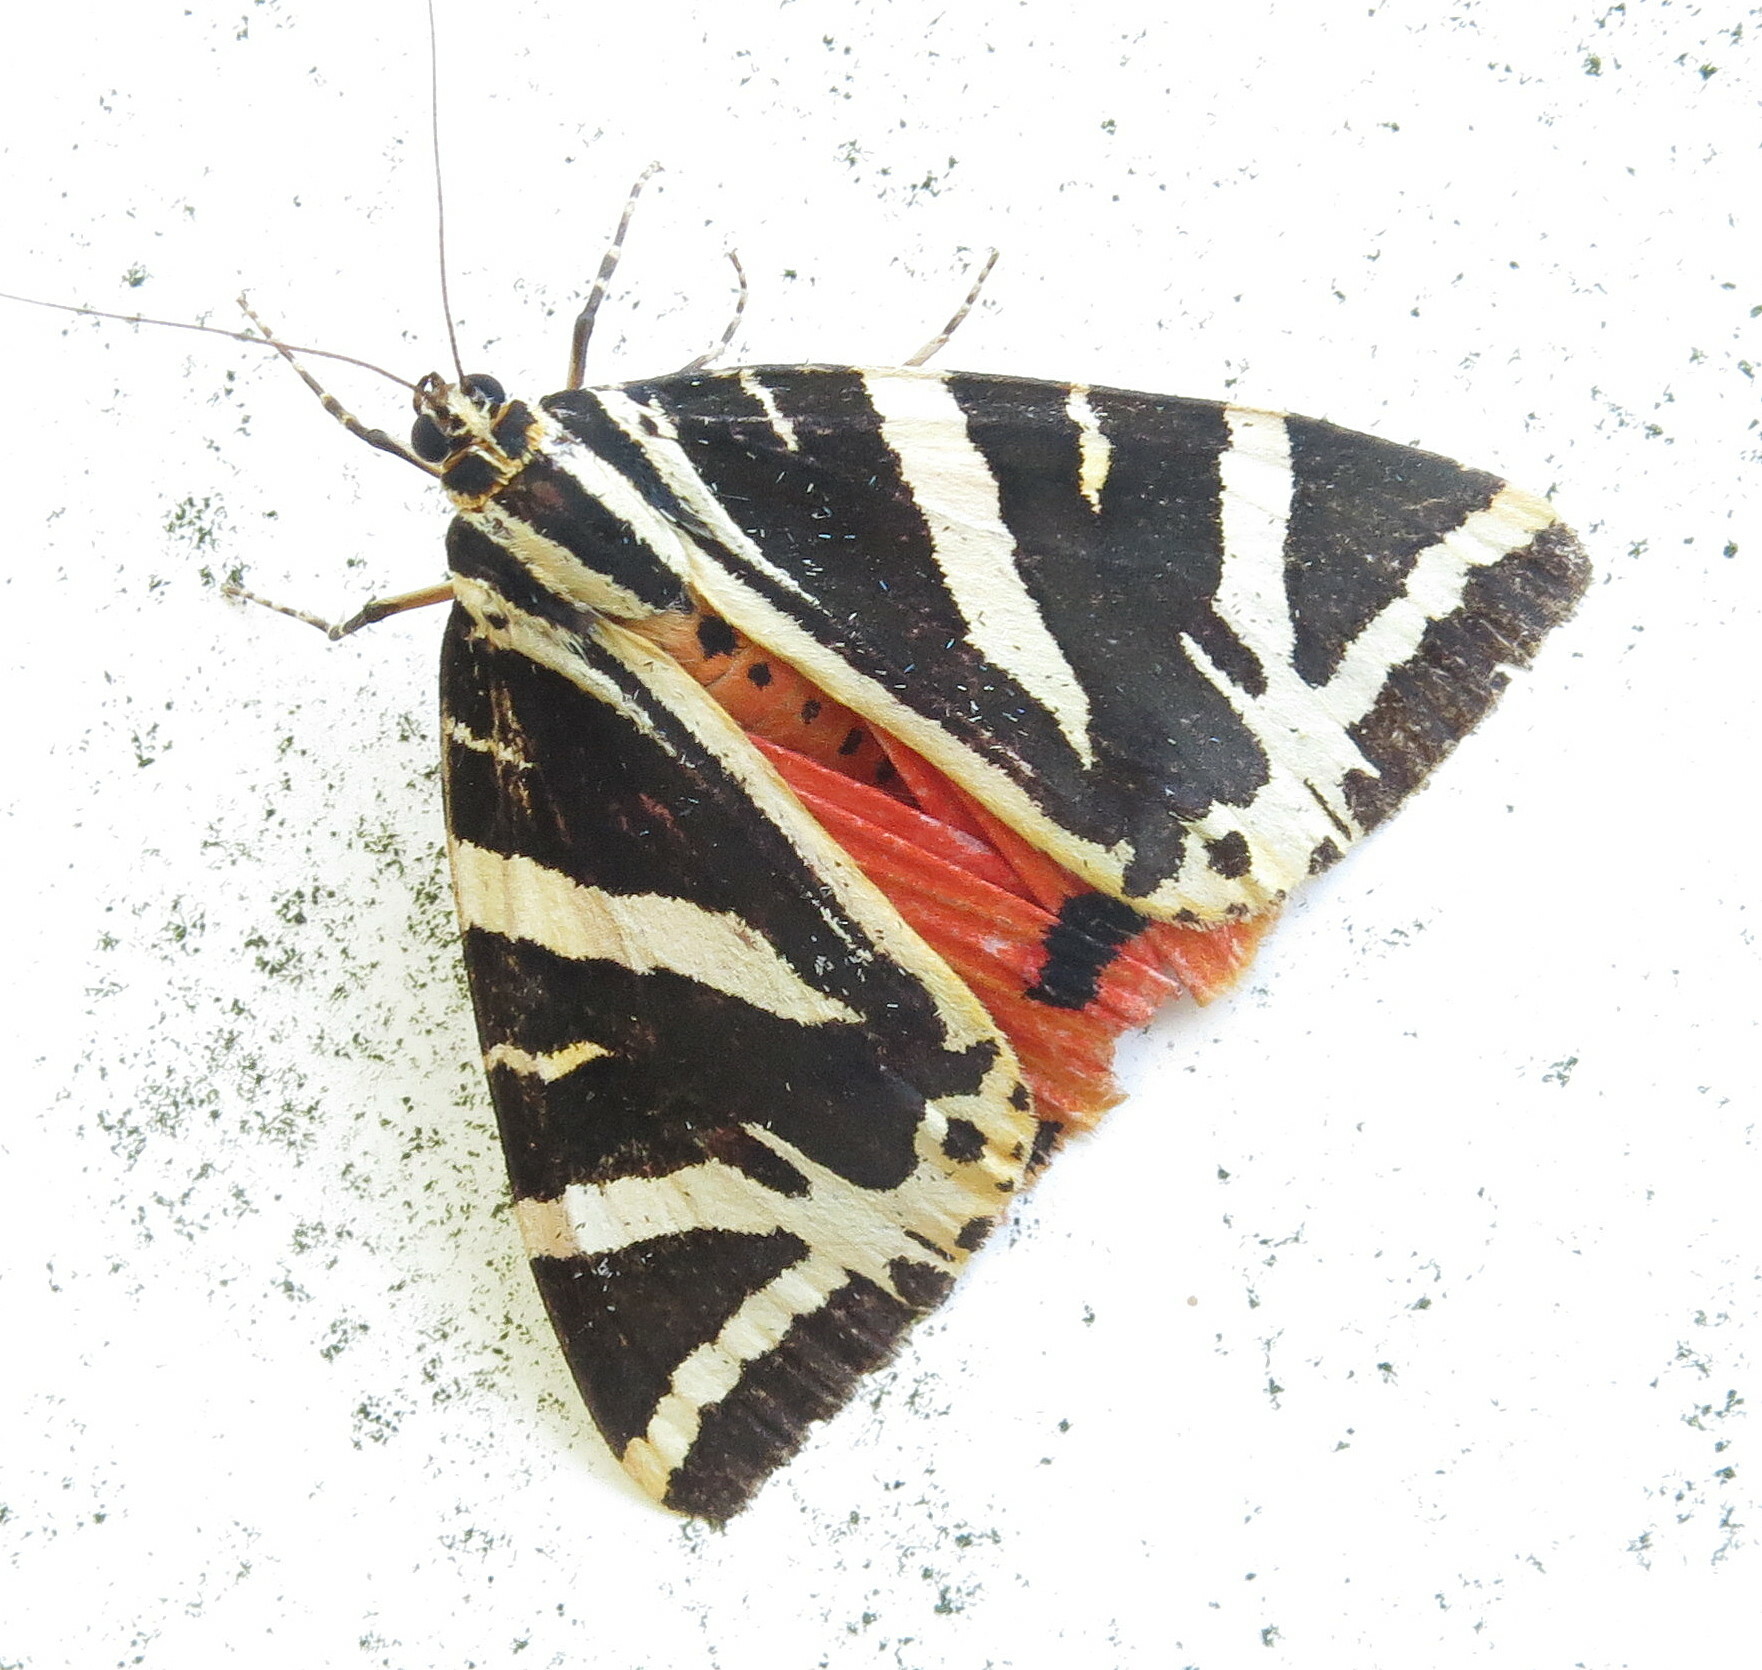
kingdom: Animalia
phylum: Arthropoda
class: Insecta
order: Lepidoptera
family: Erebidae
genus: Euplagia
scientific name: Euplagia quadripunctaria
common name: Jersey tiger
